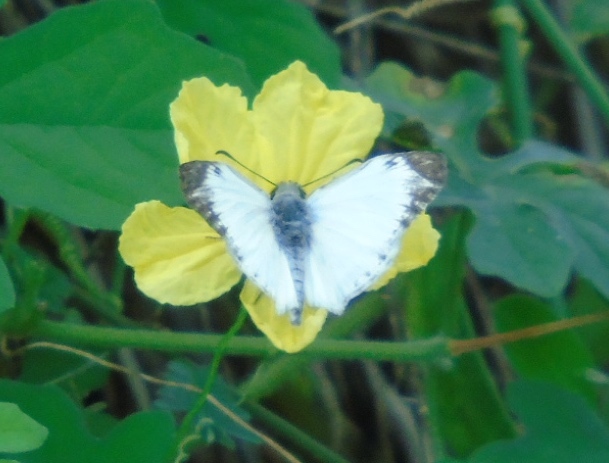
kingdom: Animalia
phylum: Arthropoda
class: Insecta
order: Lepidoptera
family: Hesperiidae
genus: Heliopetes
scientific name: Heliopetes macaira
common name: Turk's-cap white-skipper
